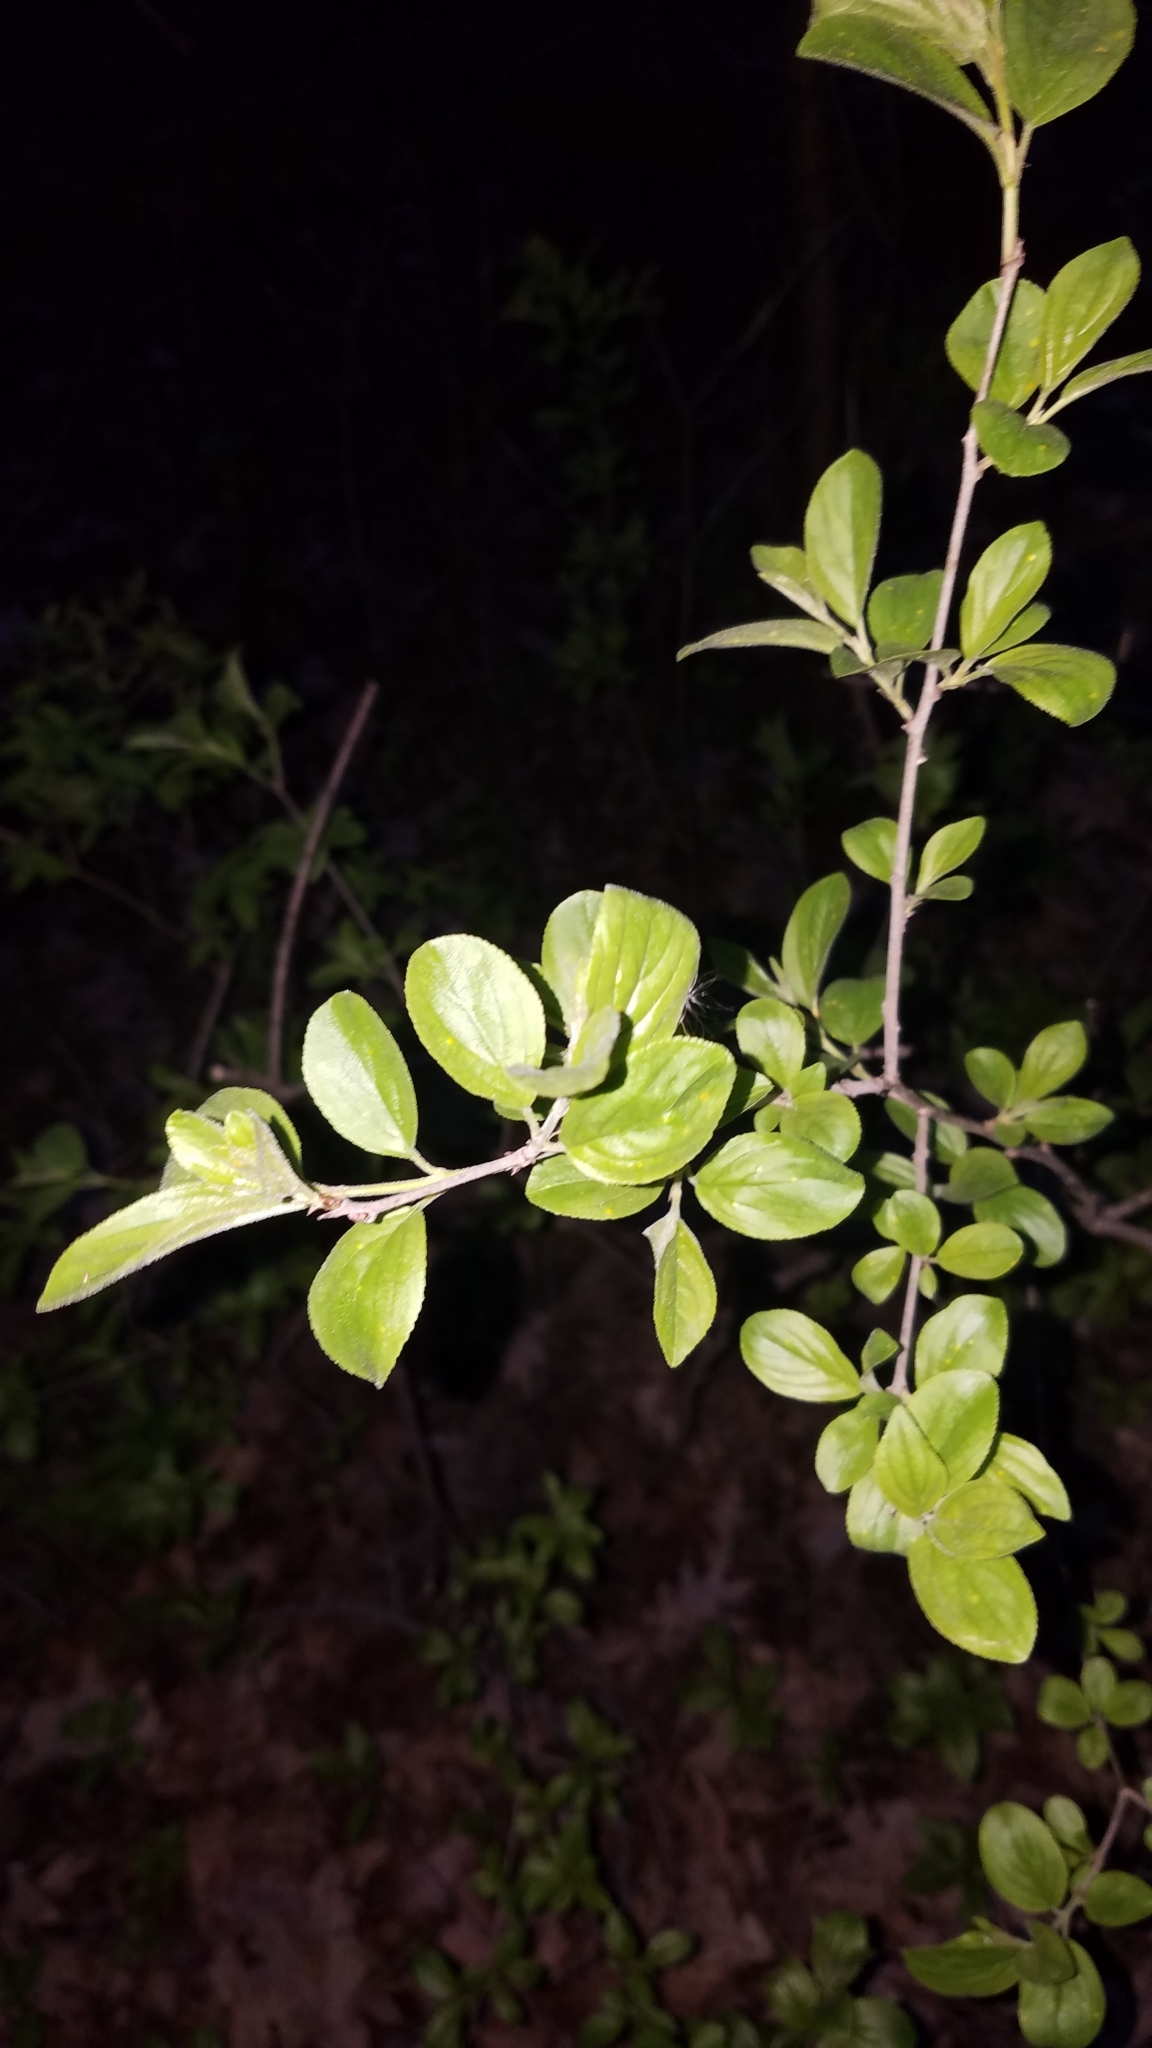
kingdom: Plantae
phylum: Tracheophyta
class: Magnoliopsida
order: Rosales
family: Rhamnaceae
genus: Rhamnus
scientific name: Rhamnus cathartica
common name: Common buckthorn
